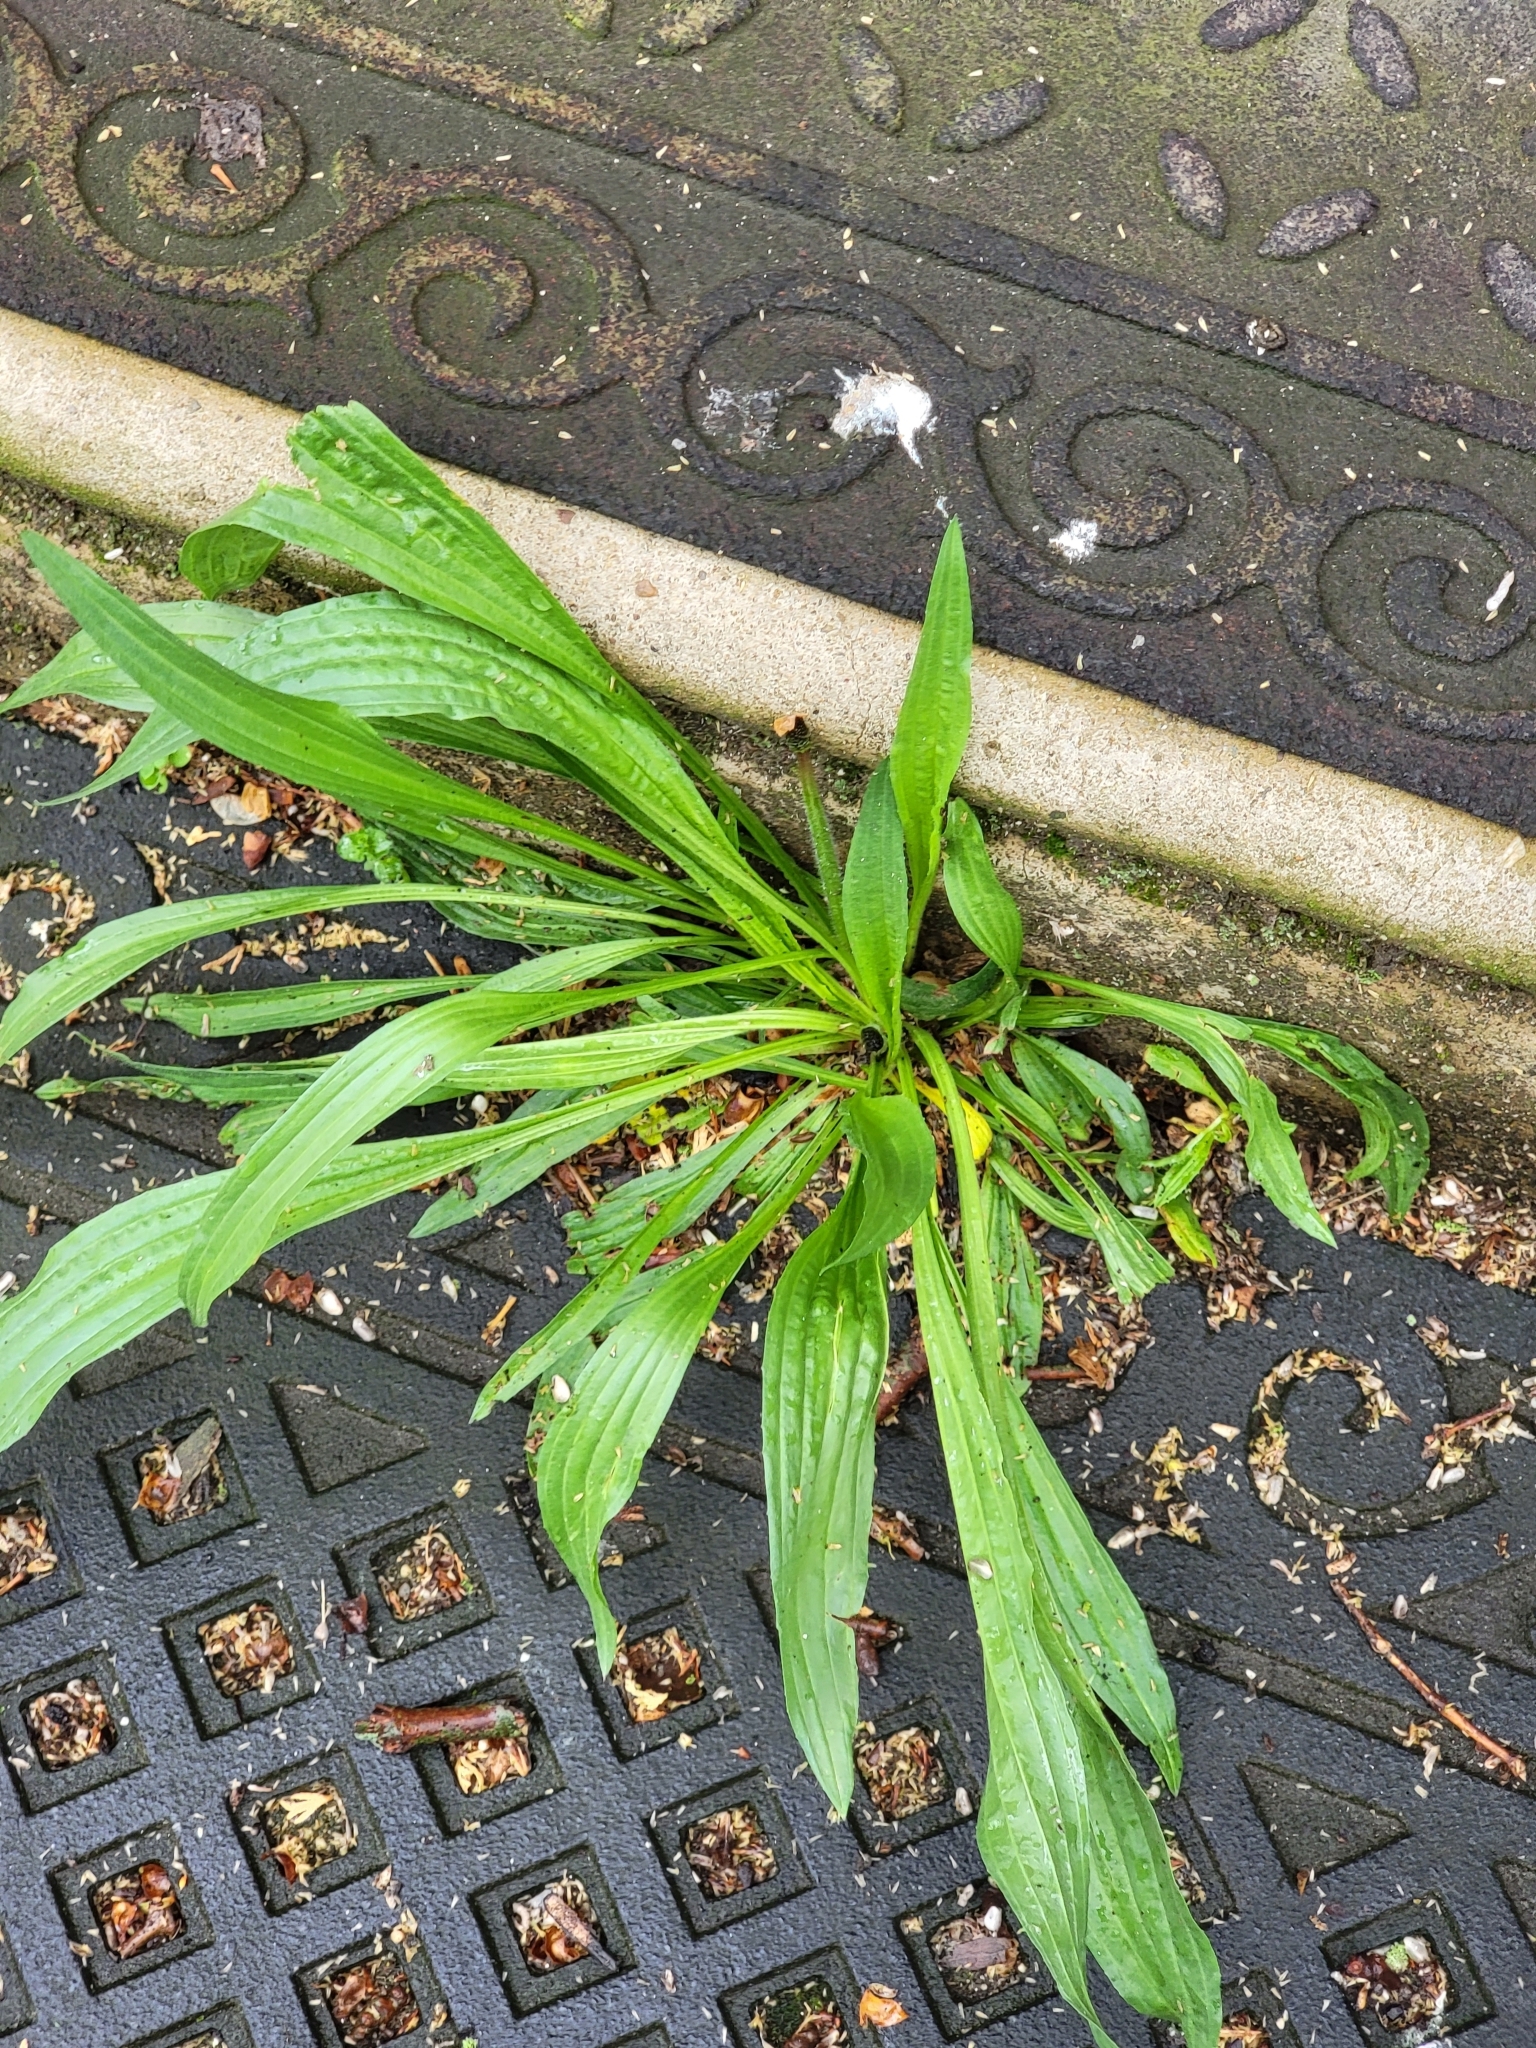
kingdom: Plantae
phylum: Tracheophyta
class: Magnoliopsida
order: Lamiales
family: Plantaginaceae
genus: Plantago
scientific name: Plantago lanceolata
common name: Ribwort plantain
